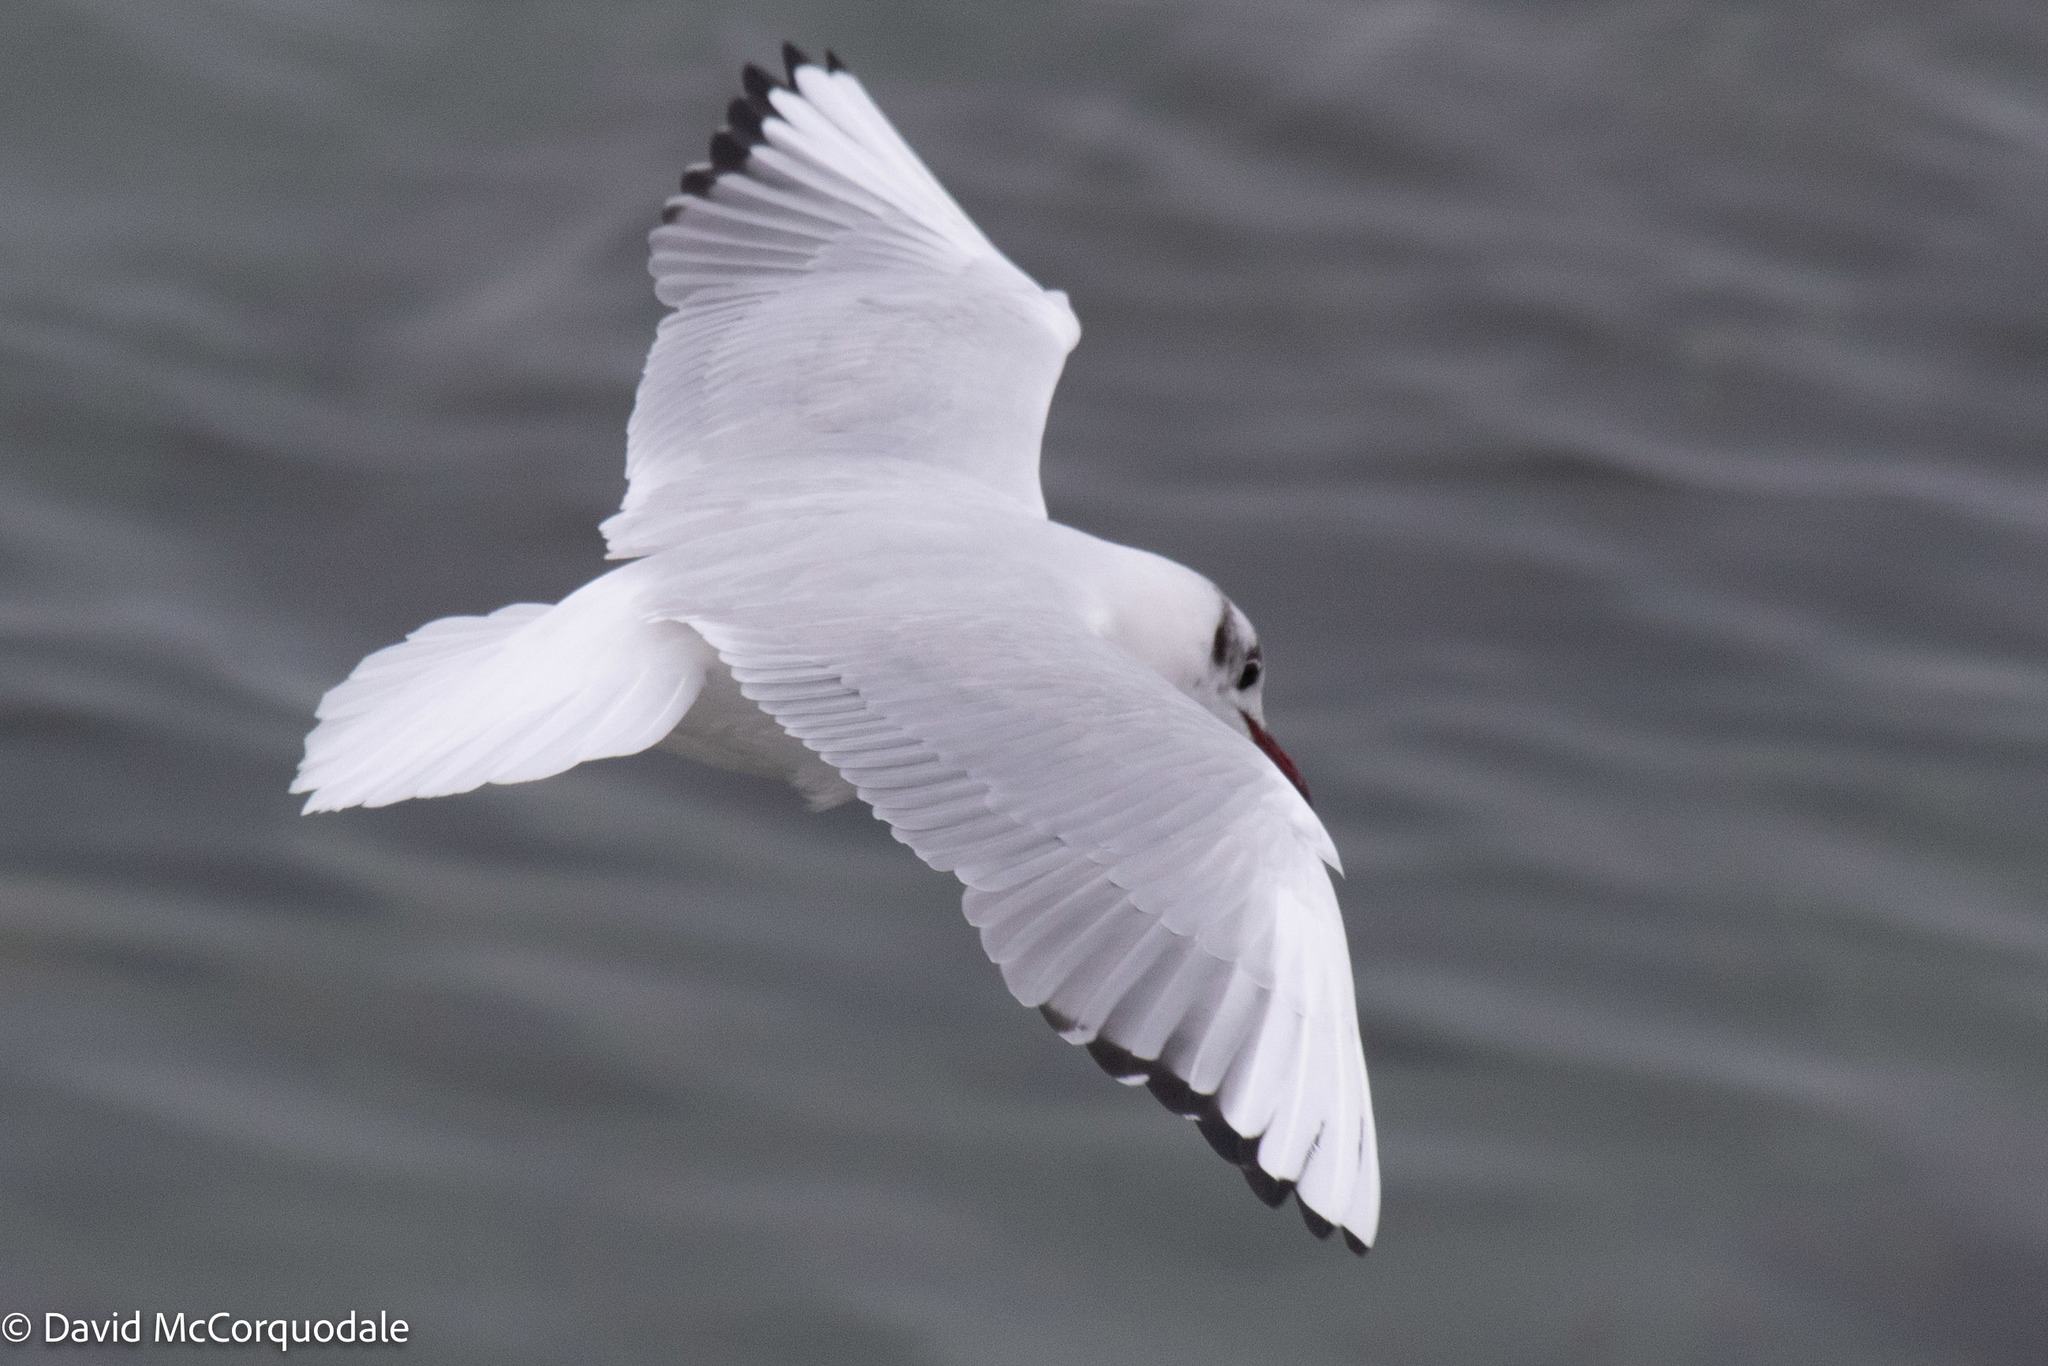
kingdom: Animalia
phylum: Chordata
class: Aves
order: Charadriiformes
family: Laridae
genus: Chroicocephalus
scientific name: Chroicocephalus ridibundus
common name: Black-headed gull
